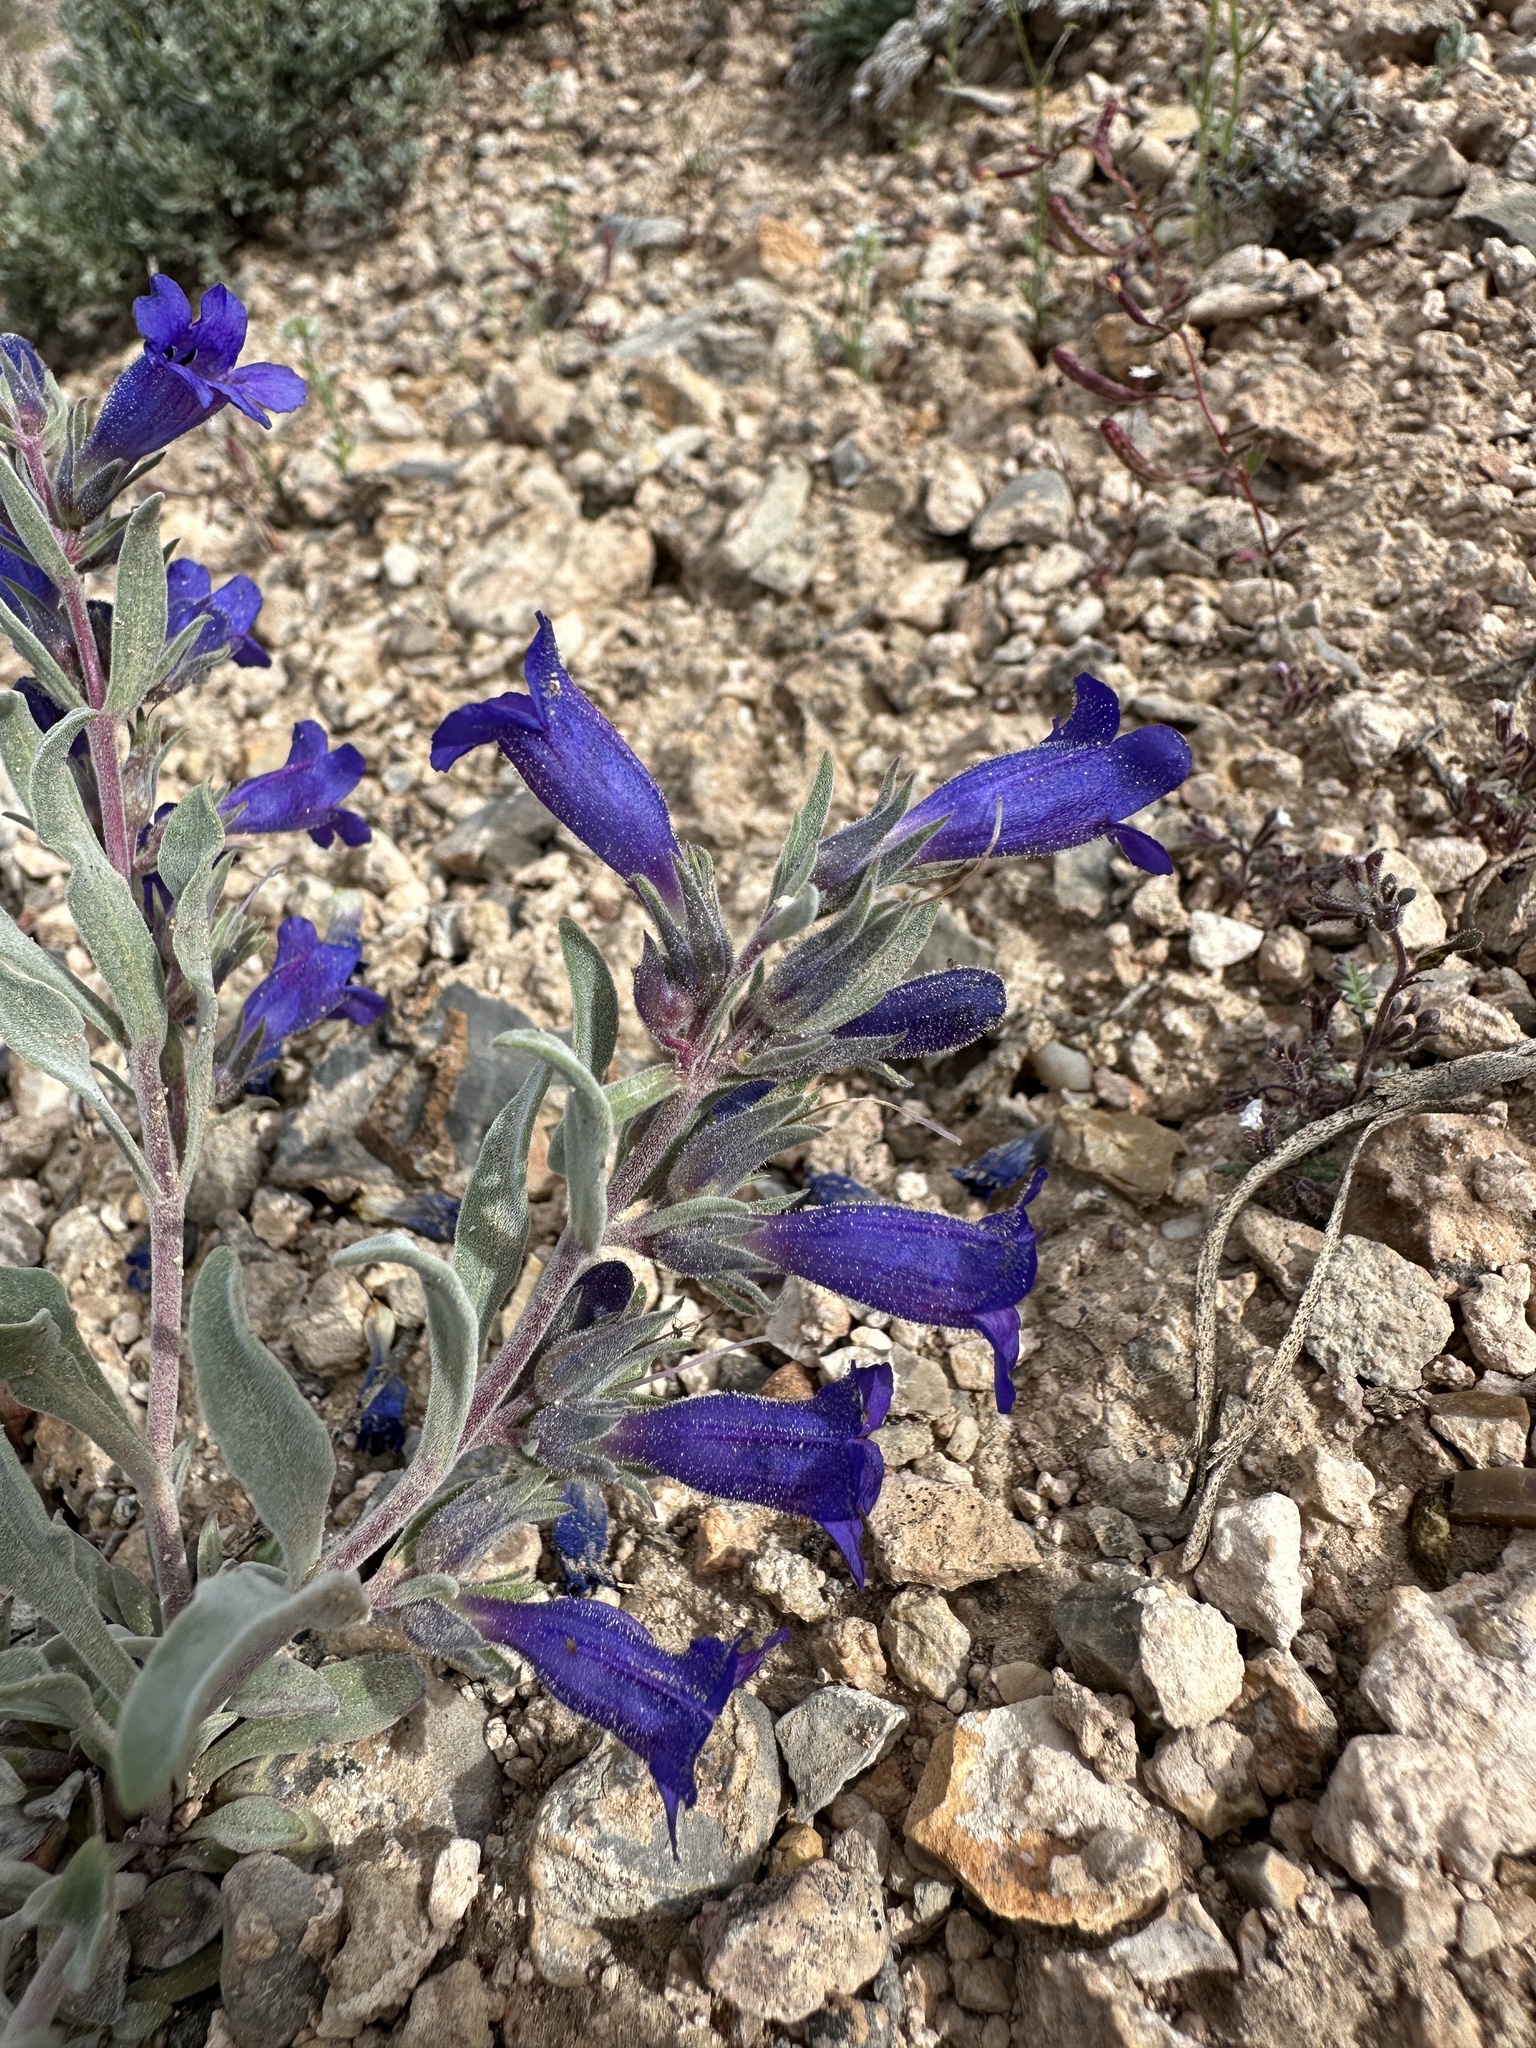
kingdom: Plantae
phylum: Tracheophyta
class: Magnoliopsida
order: Lamiales
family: Plantaginaceae
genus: Penstemon
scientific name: Penstemon dolius
